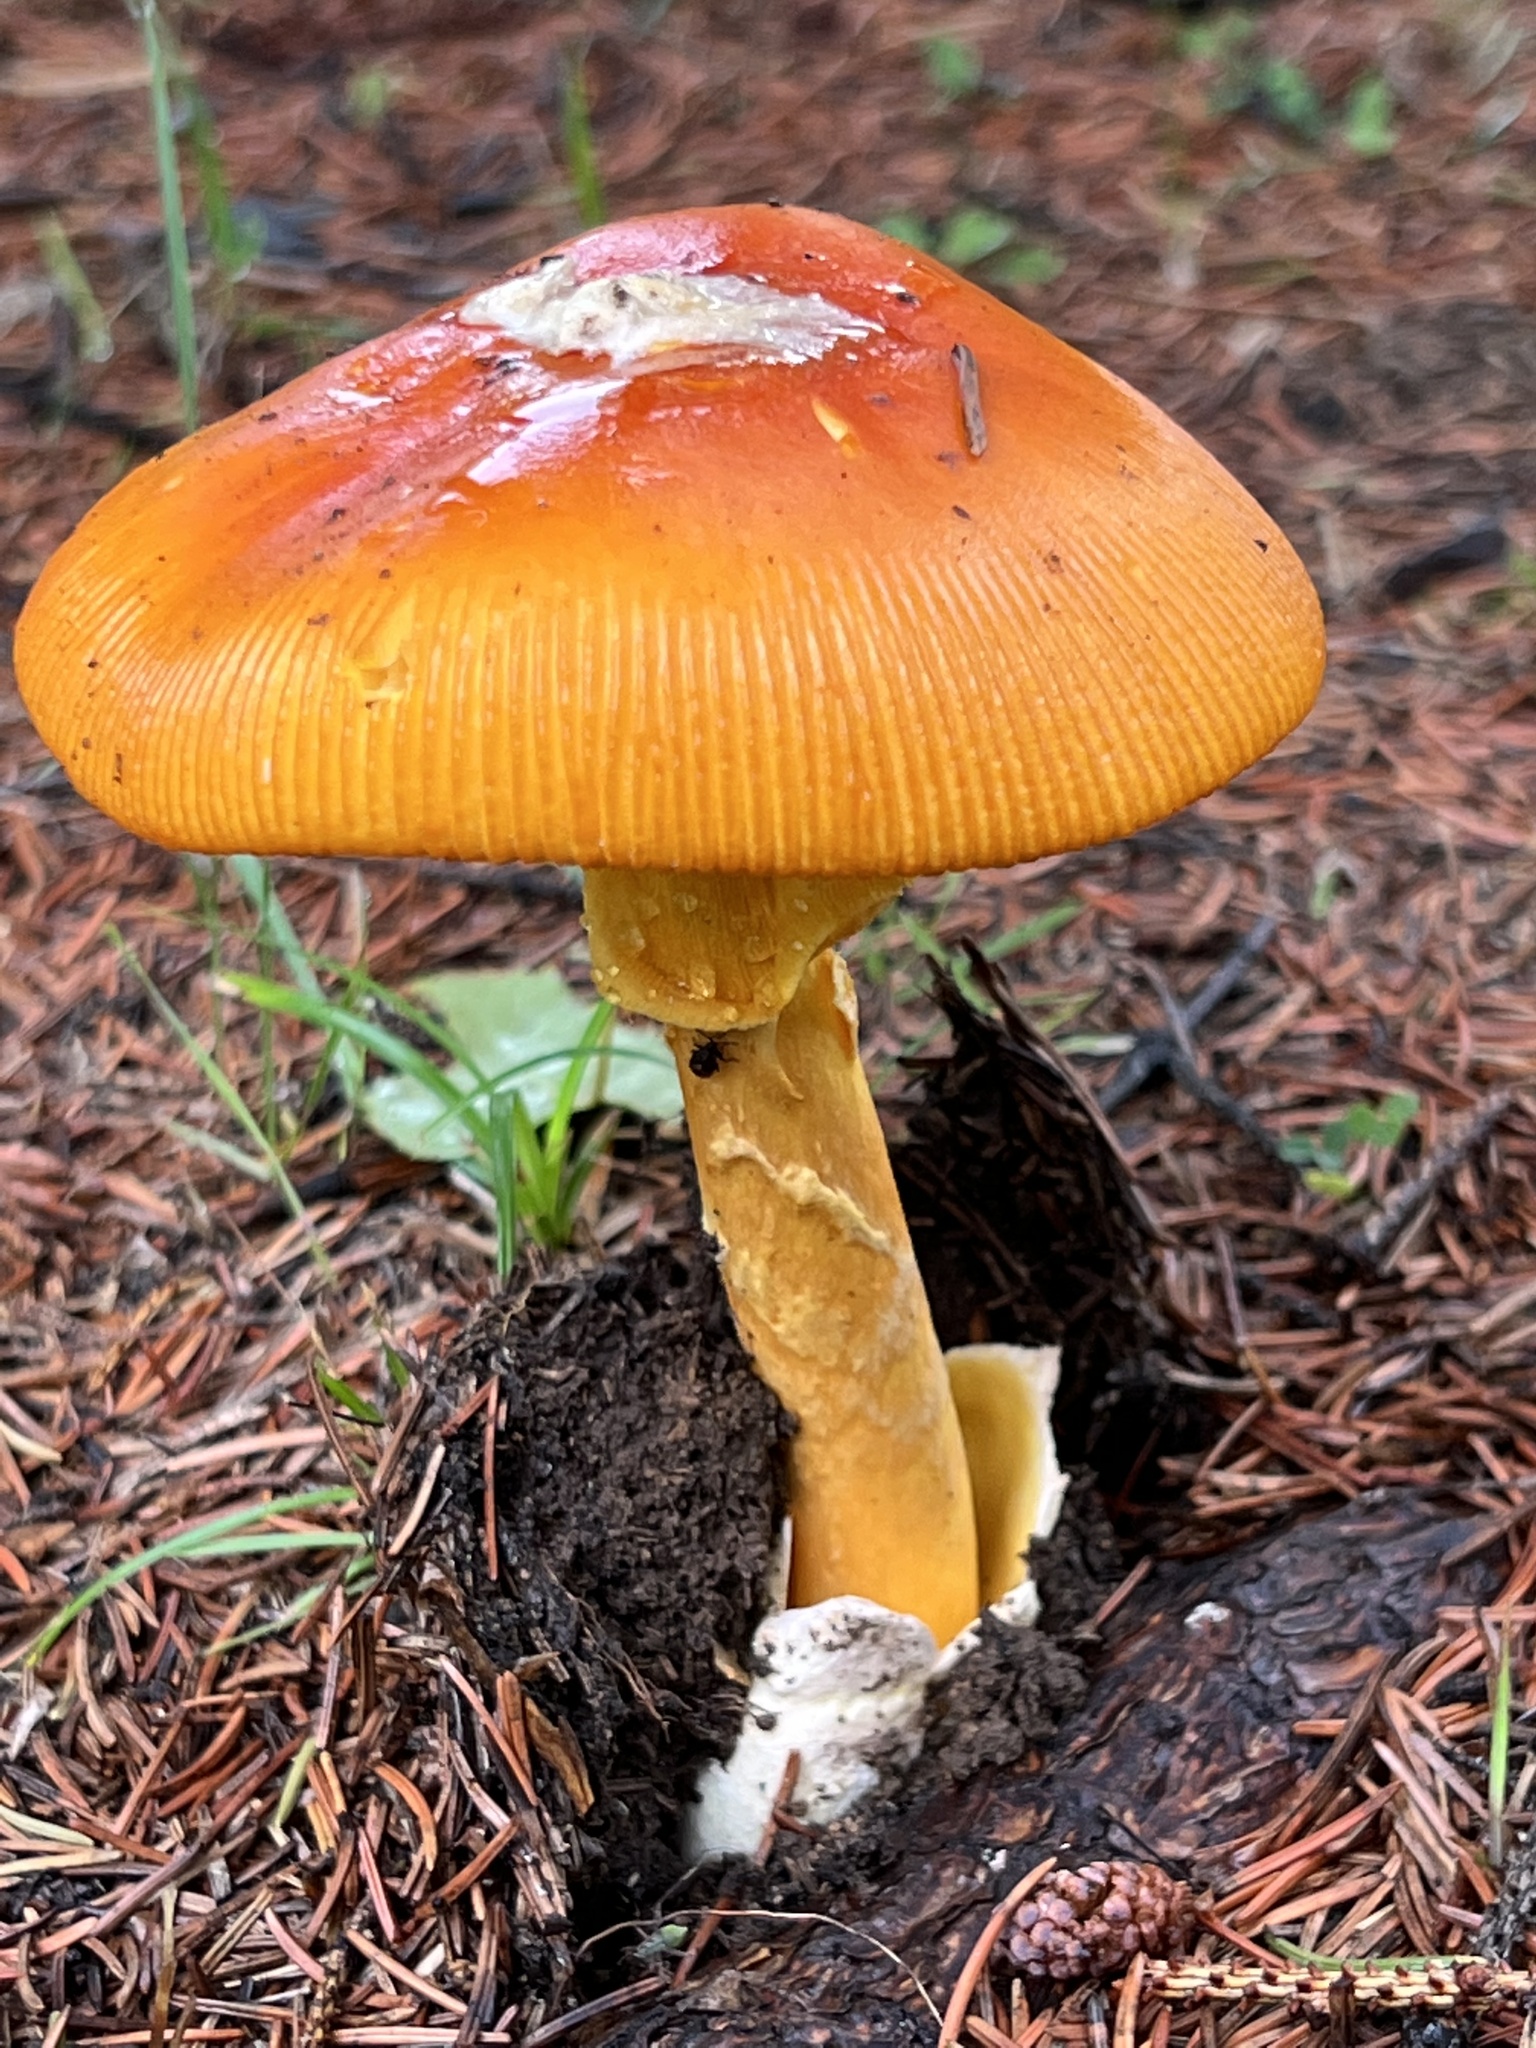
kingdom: Fungi
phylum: Basidiomycota
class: Agaricomycetes
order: Agaricales
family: Amanitaceae
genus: Amanita
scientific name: Amanita caesareoides
